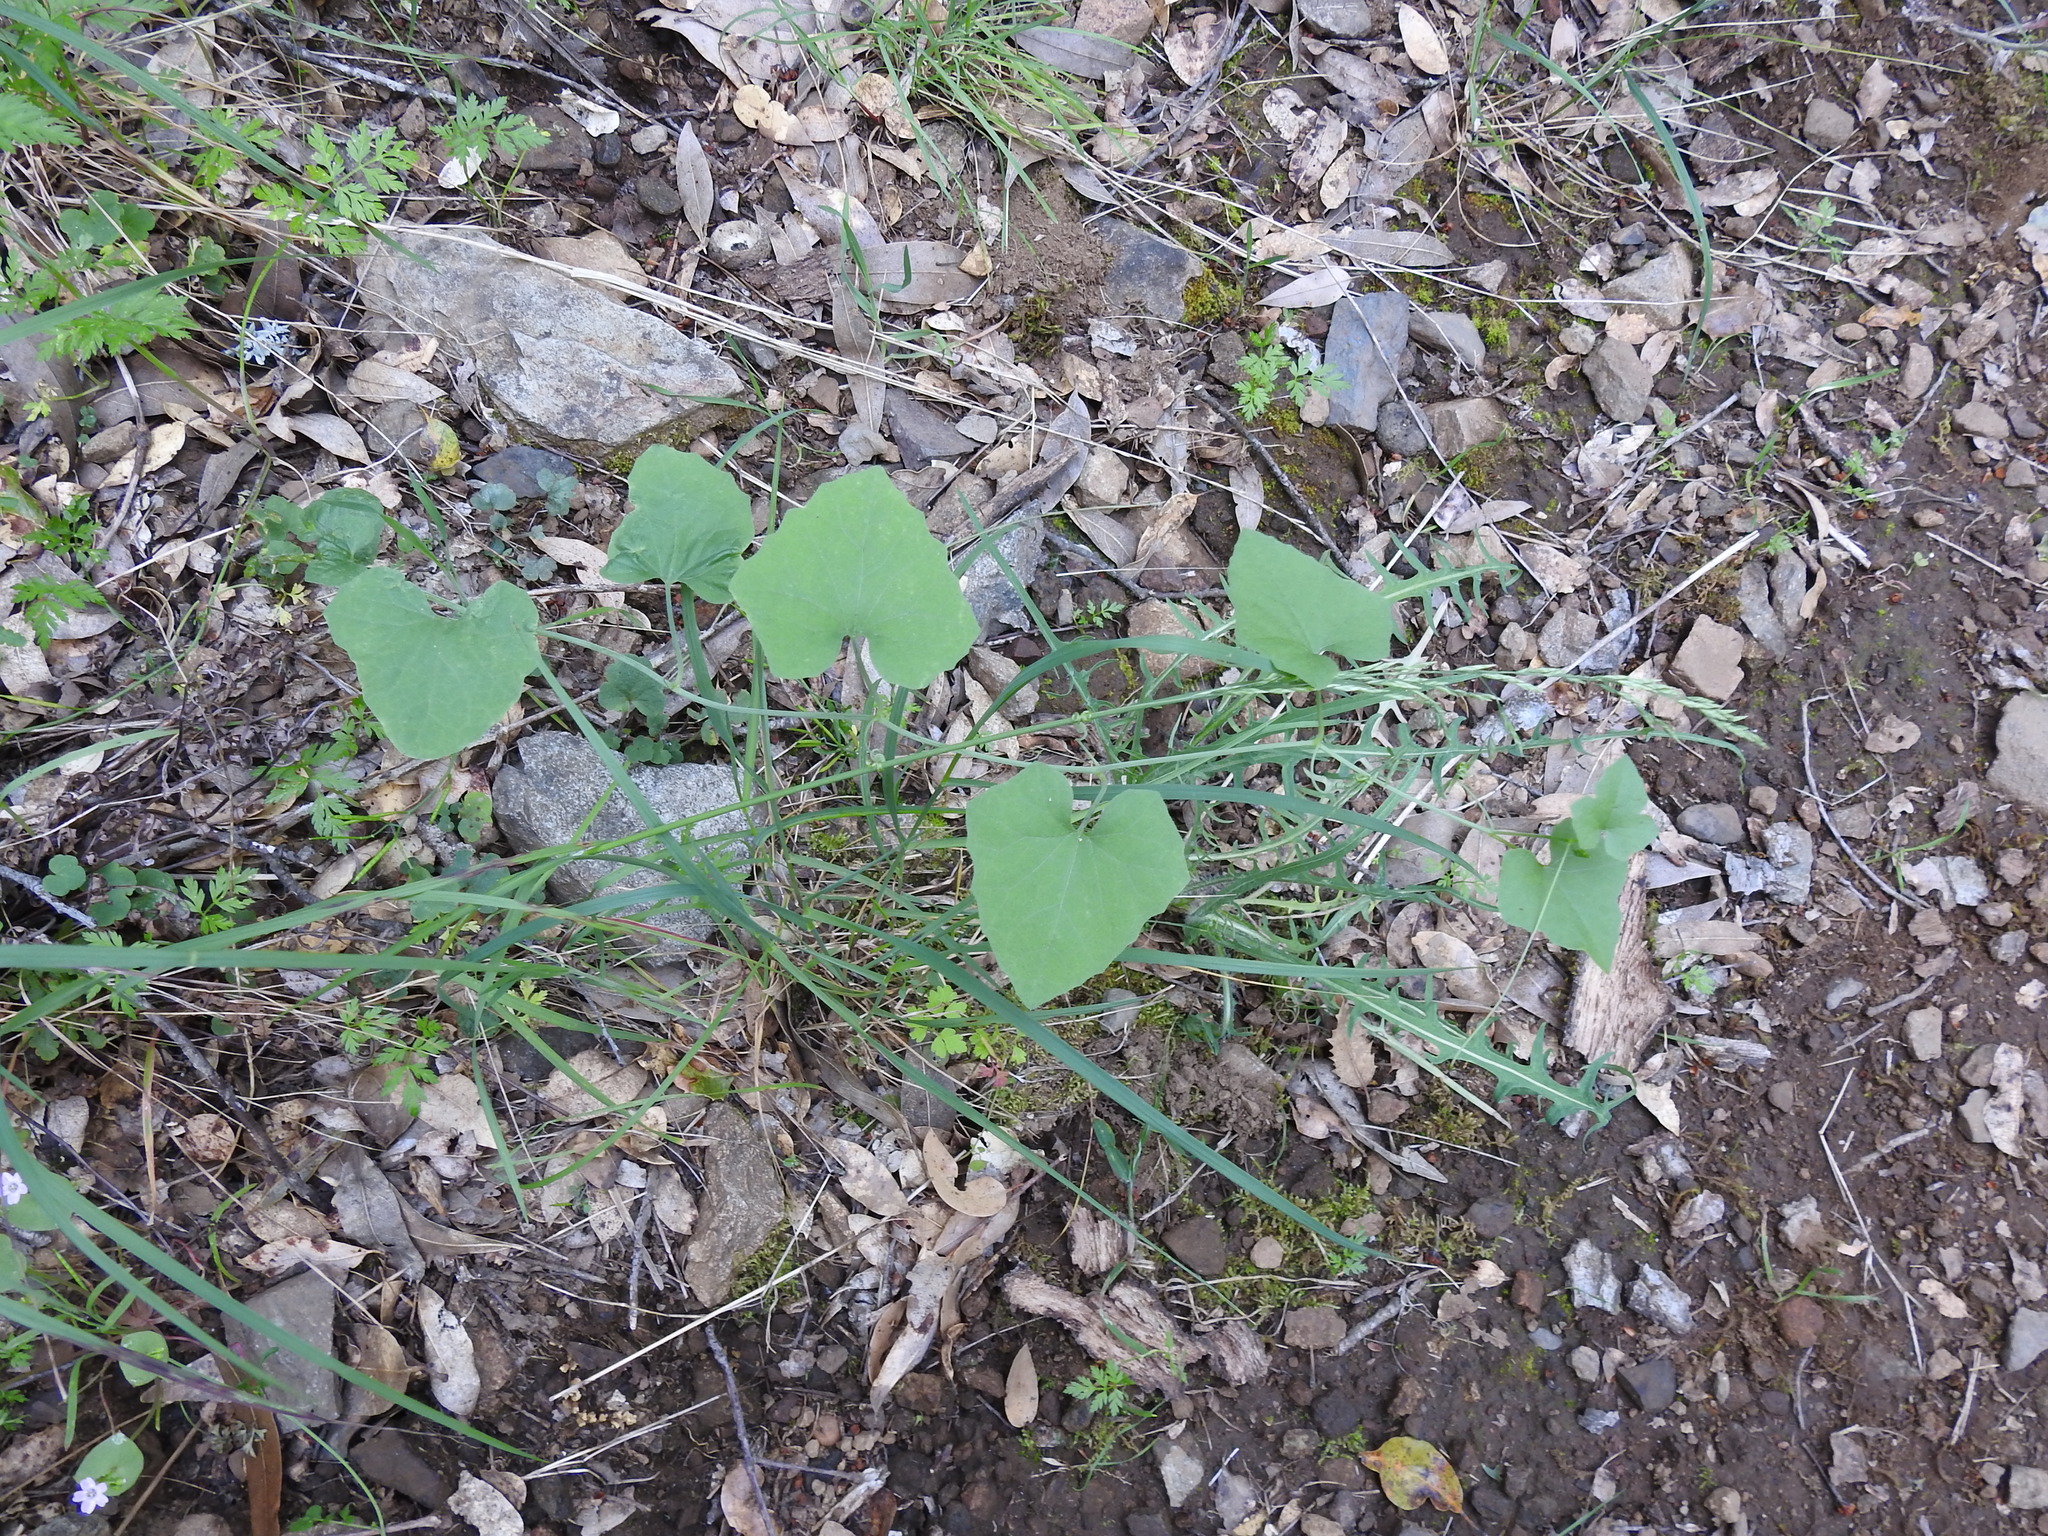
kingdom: Plantae
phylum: Tracheophyta
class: Magnoliopsida
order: Piperales
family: Aristolochiaceae
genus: Isotrema
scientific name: Isotrema californicum
